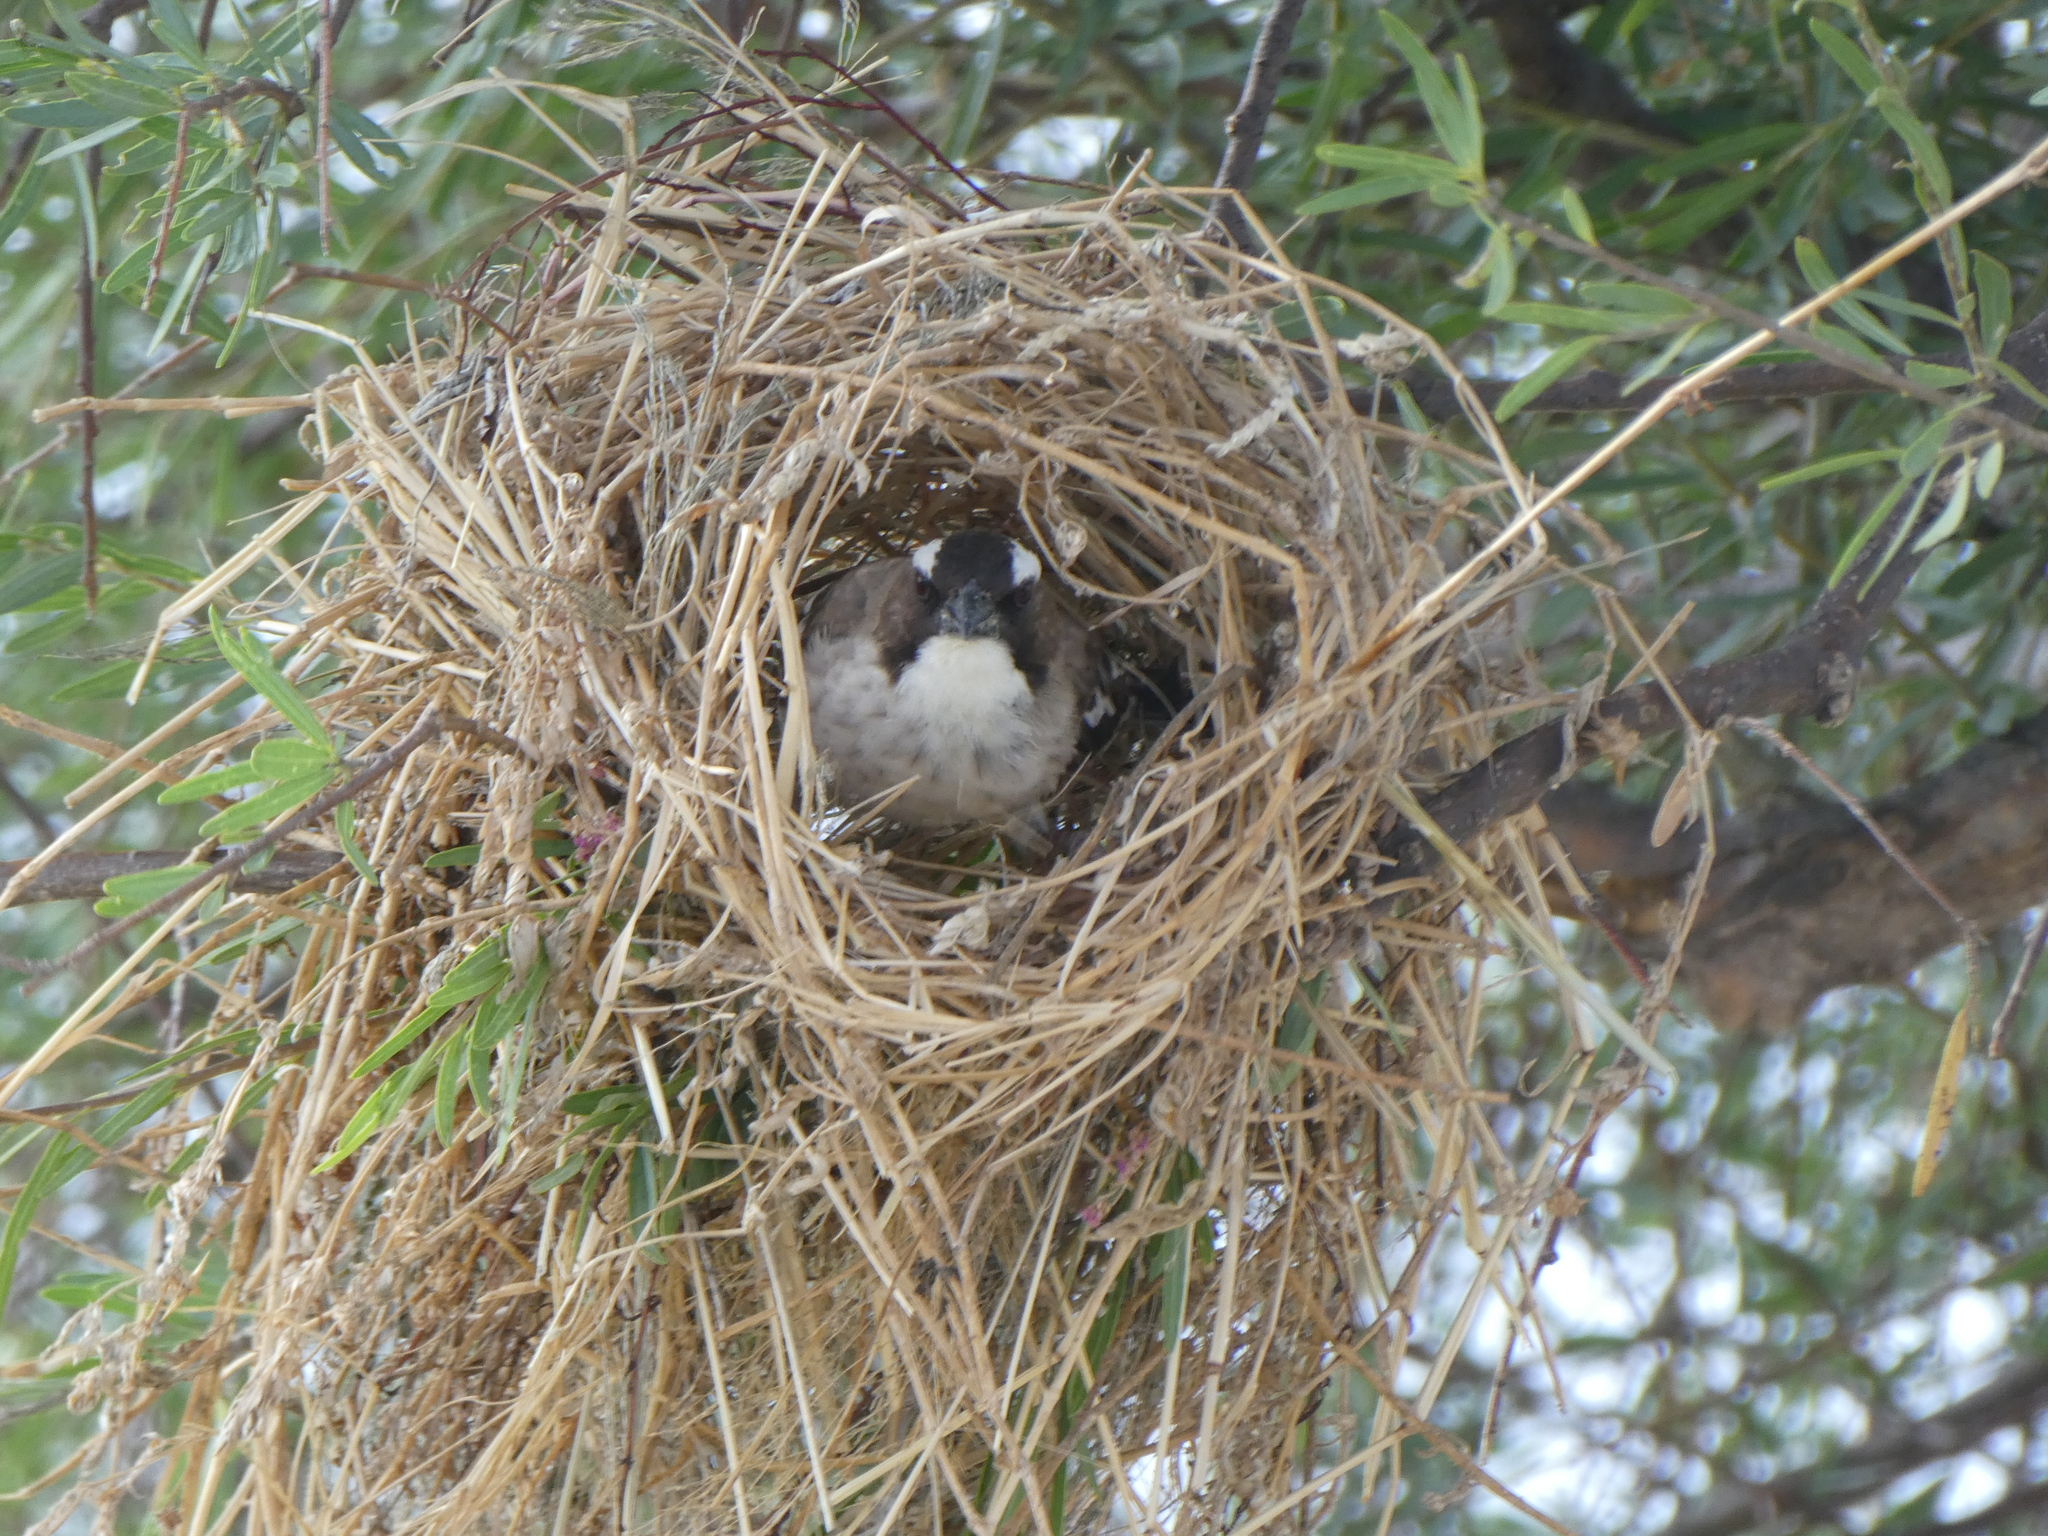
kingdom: Animalia
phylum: Chordata
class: Aves
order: Passeriformes
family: Passeridae
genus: Plocepasser
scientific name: Plocepasser mahali
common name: White-browed sparrow-weaver
